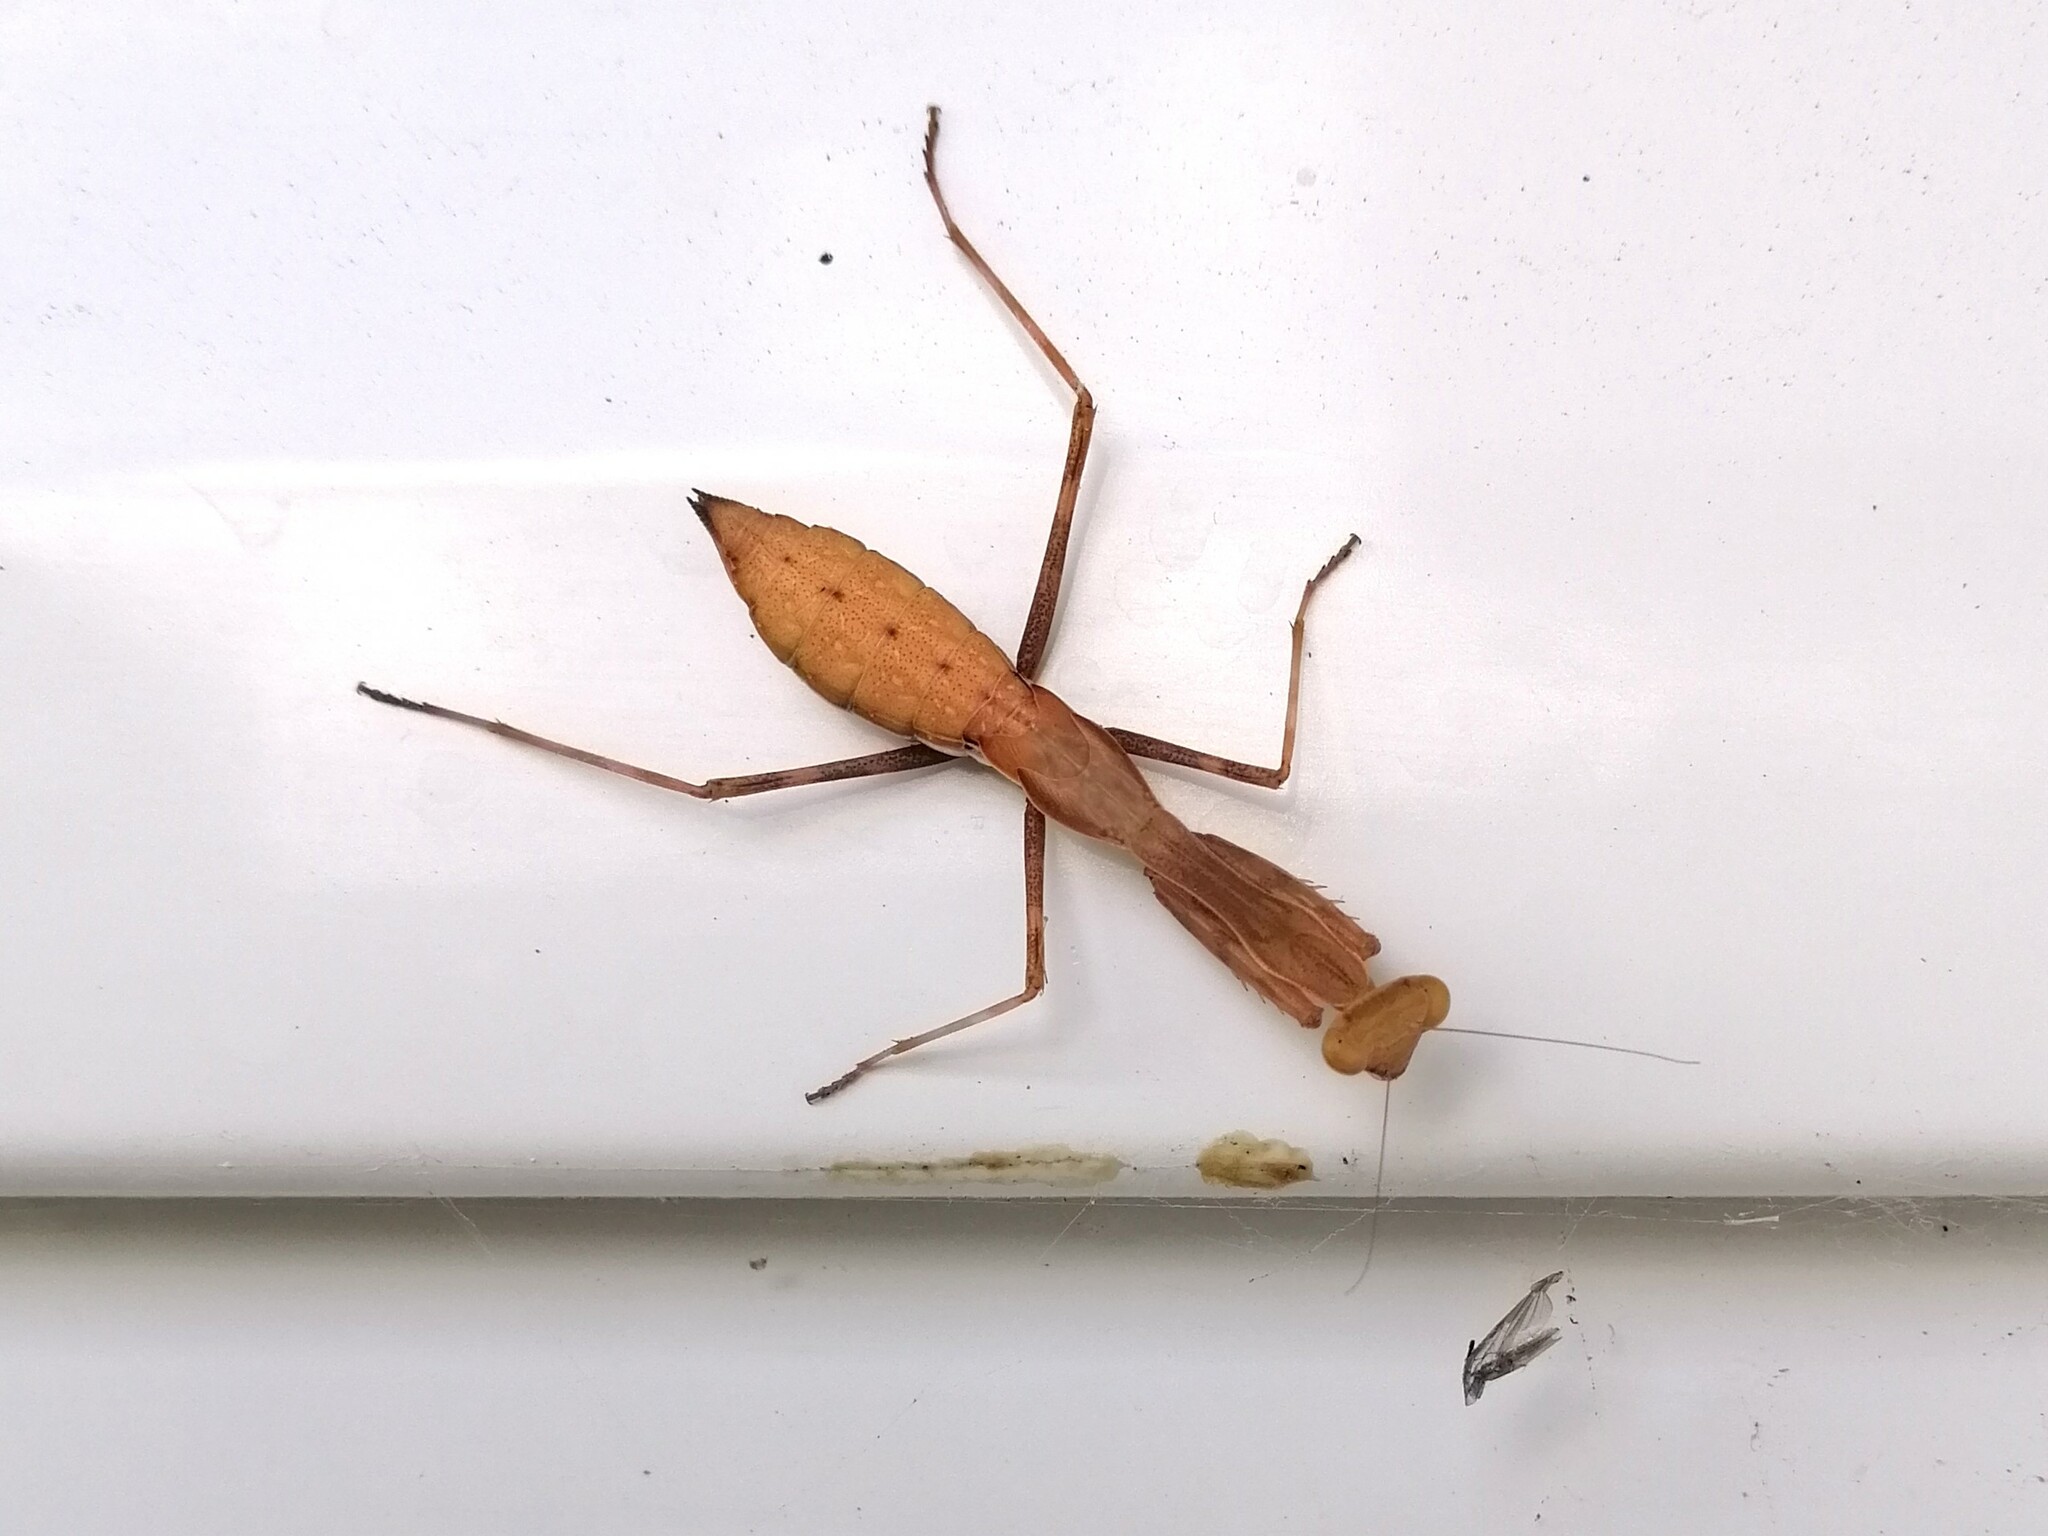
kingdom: Animalia
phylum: Arthropoda
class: Insecta
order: Mantodea
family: Miomantidae
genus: Miomantis
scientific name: Miomantis caffra
